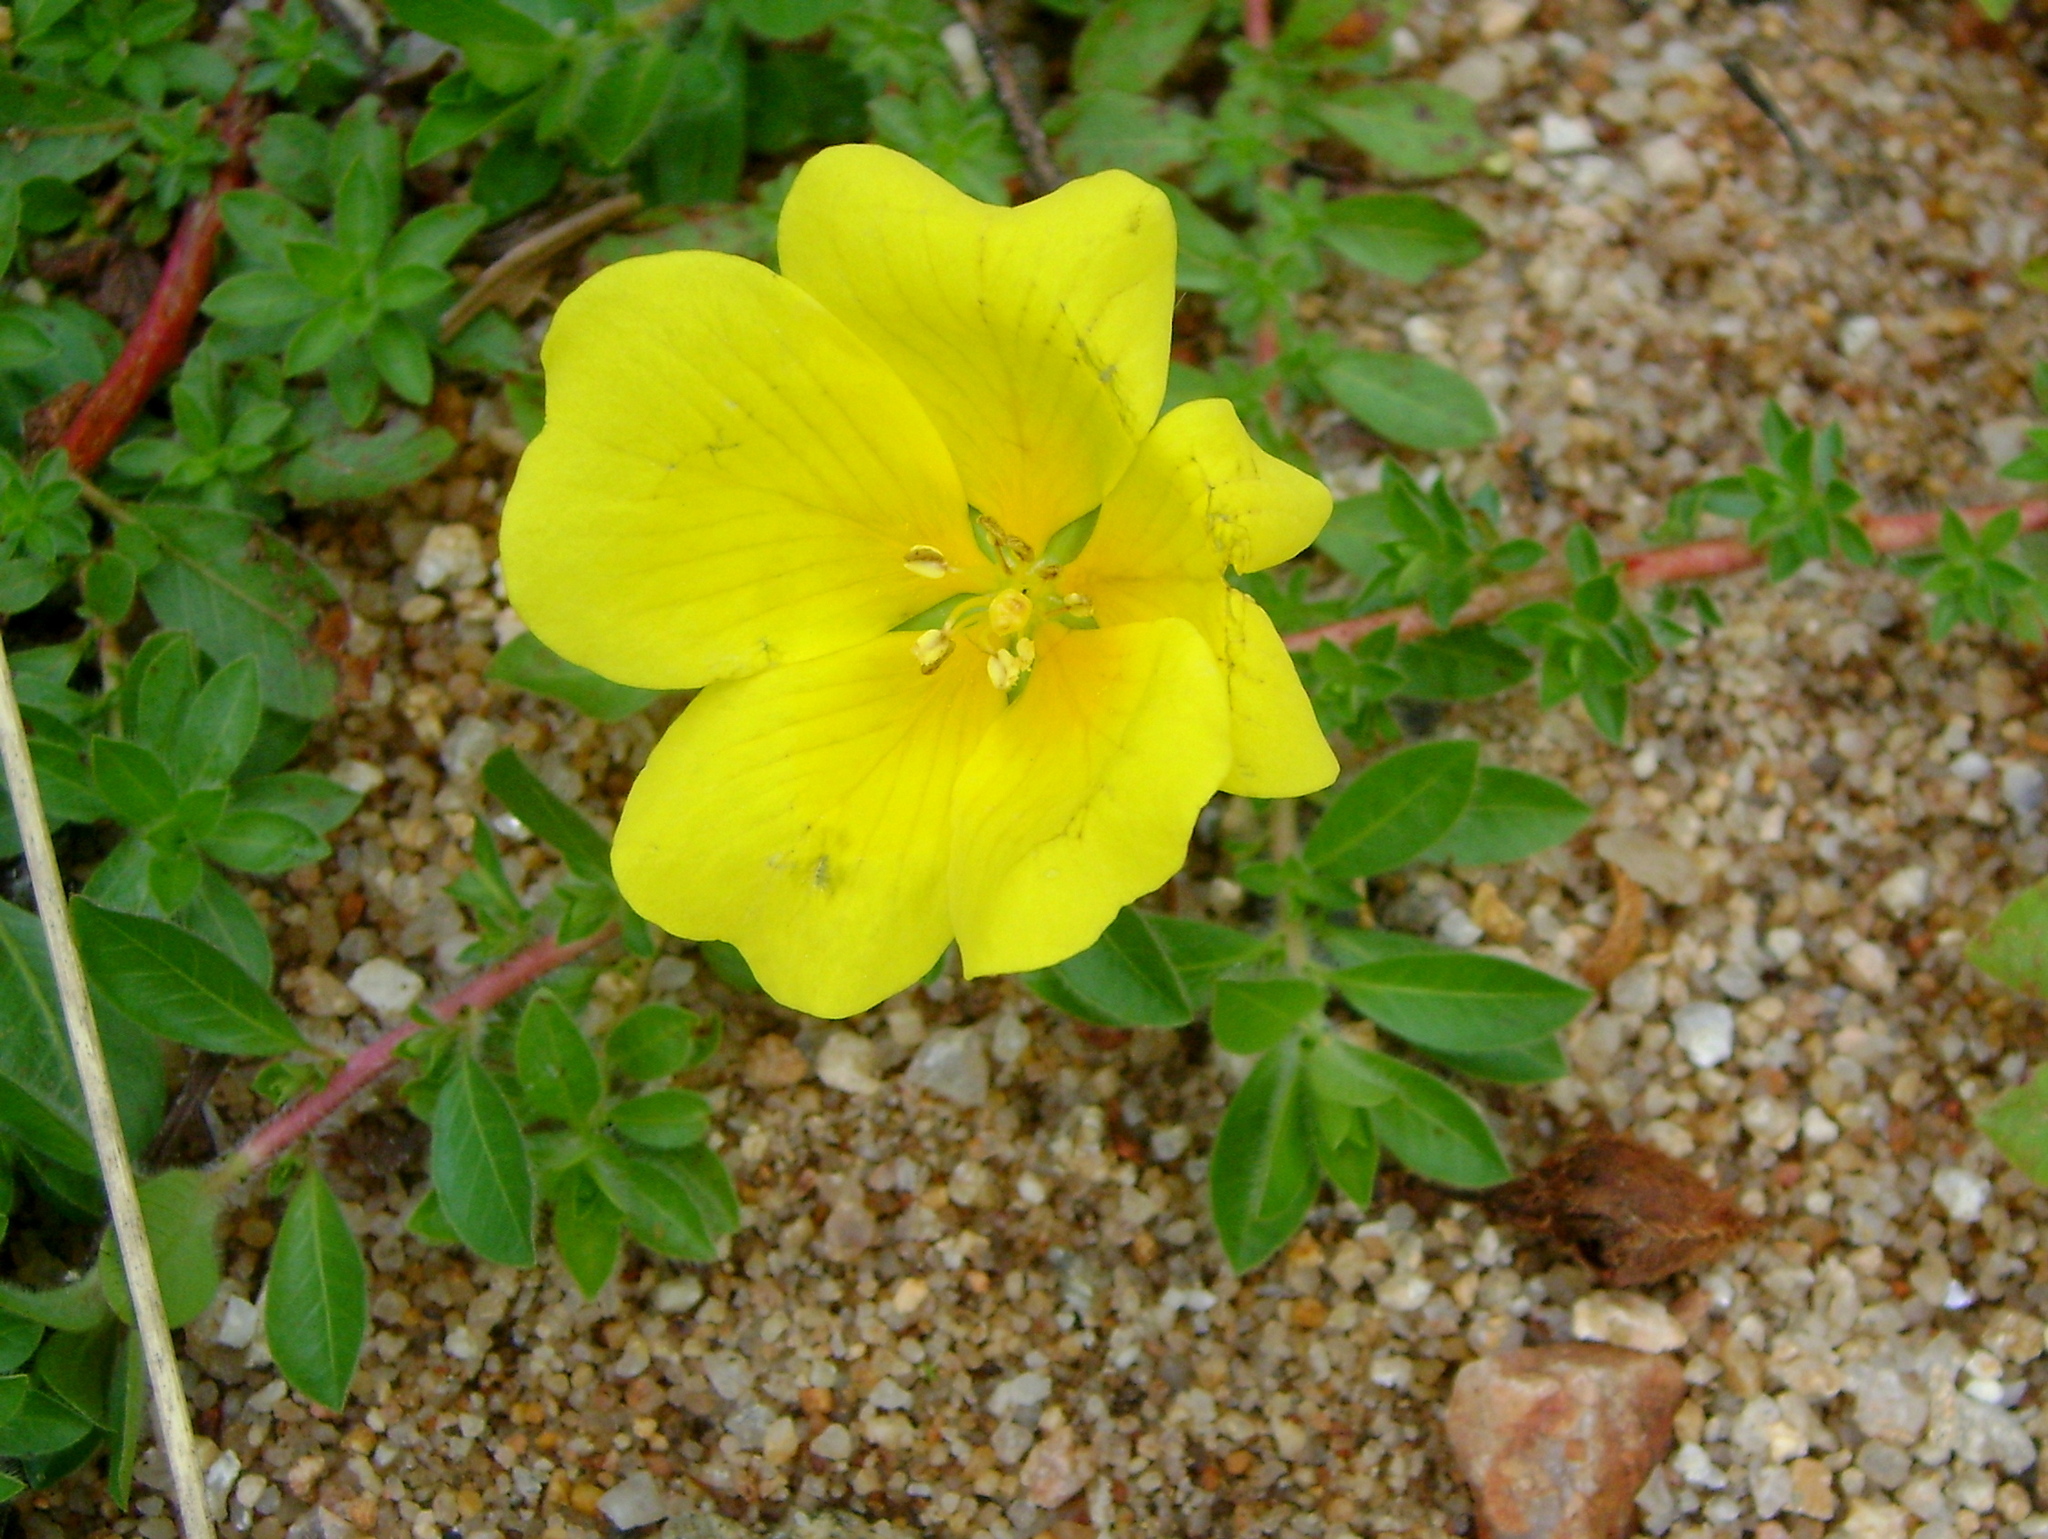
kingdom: Plantae
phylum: Tracheophyta
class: Magnoliopsida
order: Myrtales
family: Onagraceae
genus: Ludwigia
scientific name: Ludwigia grandiflora
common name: Water primrose
